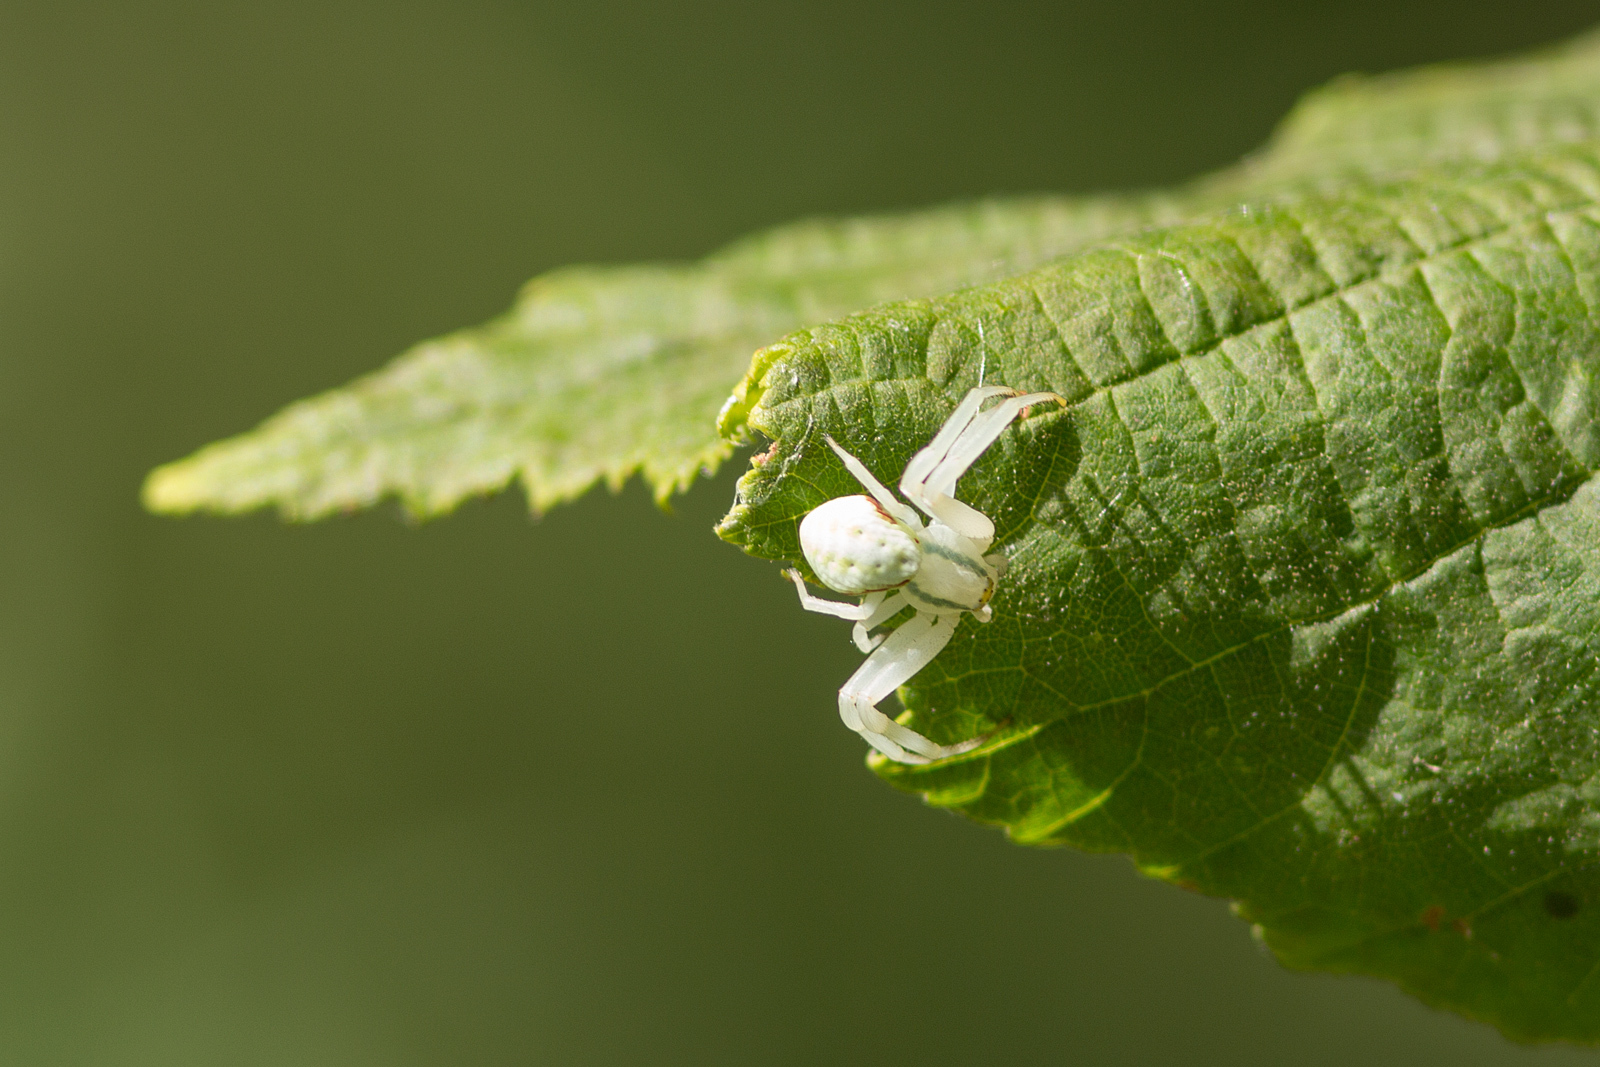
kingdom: Animalia
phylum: Arthropoda
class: Arachnida
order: Araneae
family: Thomisidae
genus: Misumena
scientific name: Misumena vatia
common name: Goldenrod crab spider
